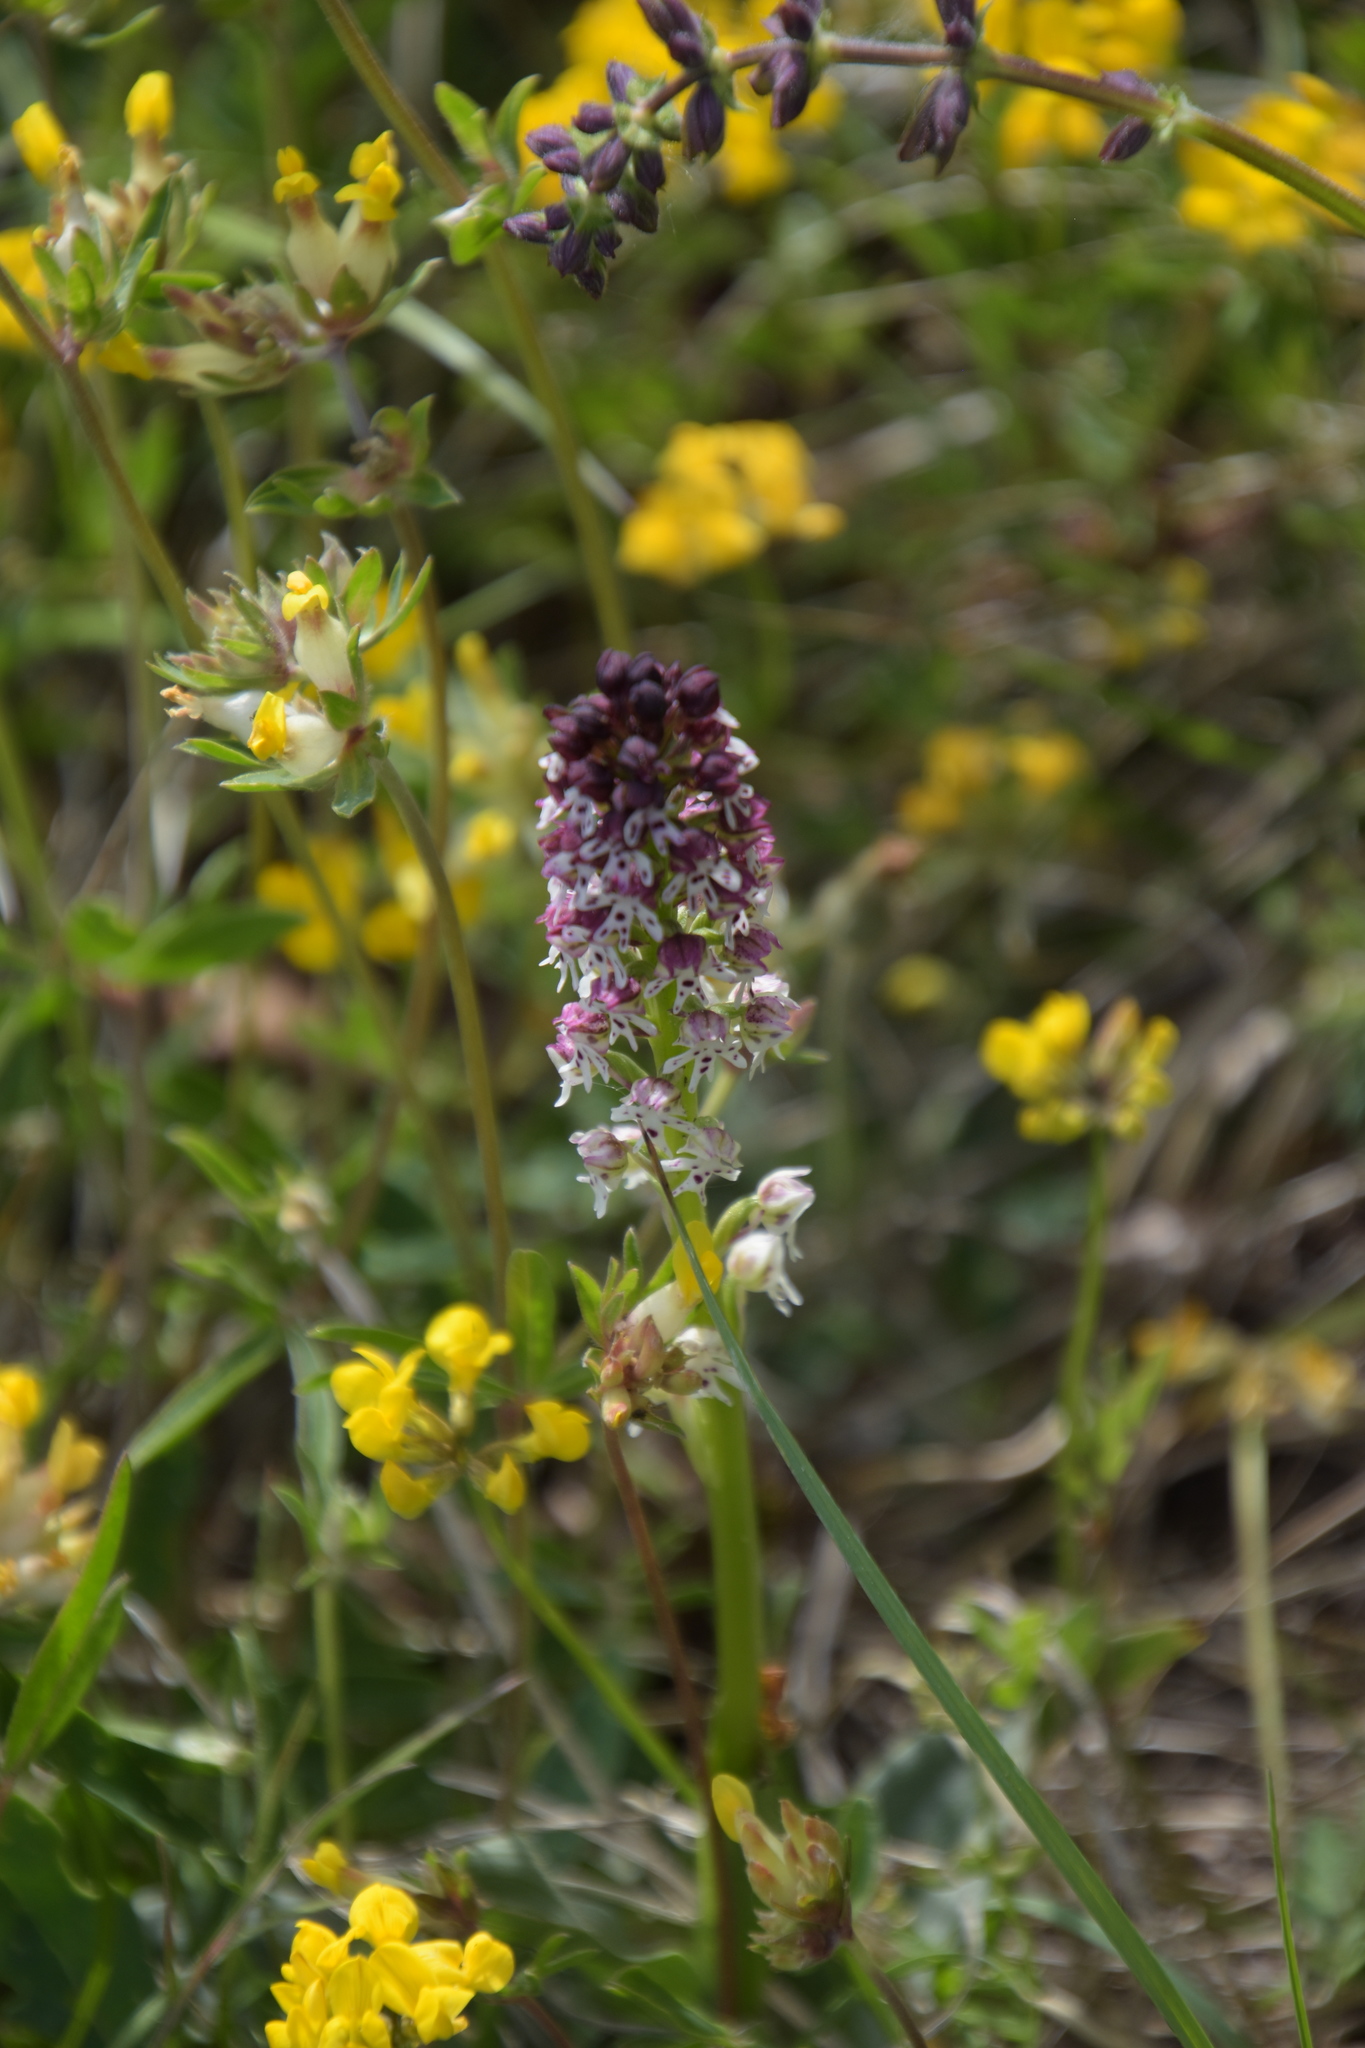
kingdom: Plantae
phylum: Tracheophyta
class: Liliopsida
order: Asparagales
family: Orchidaceae
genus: Neotinea
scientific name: Neotinea ustulata
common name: Burnt orchid
